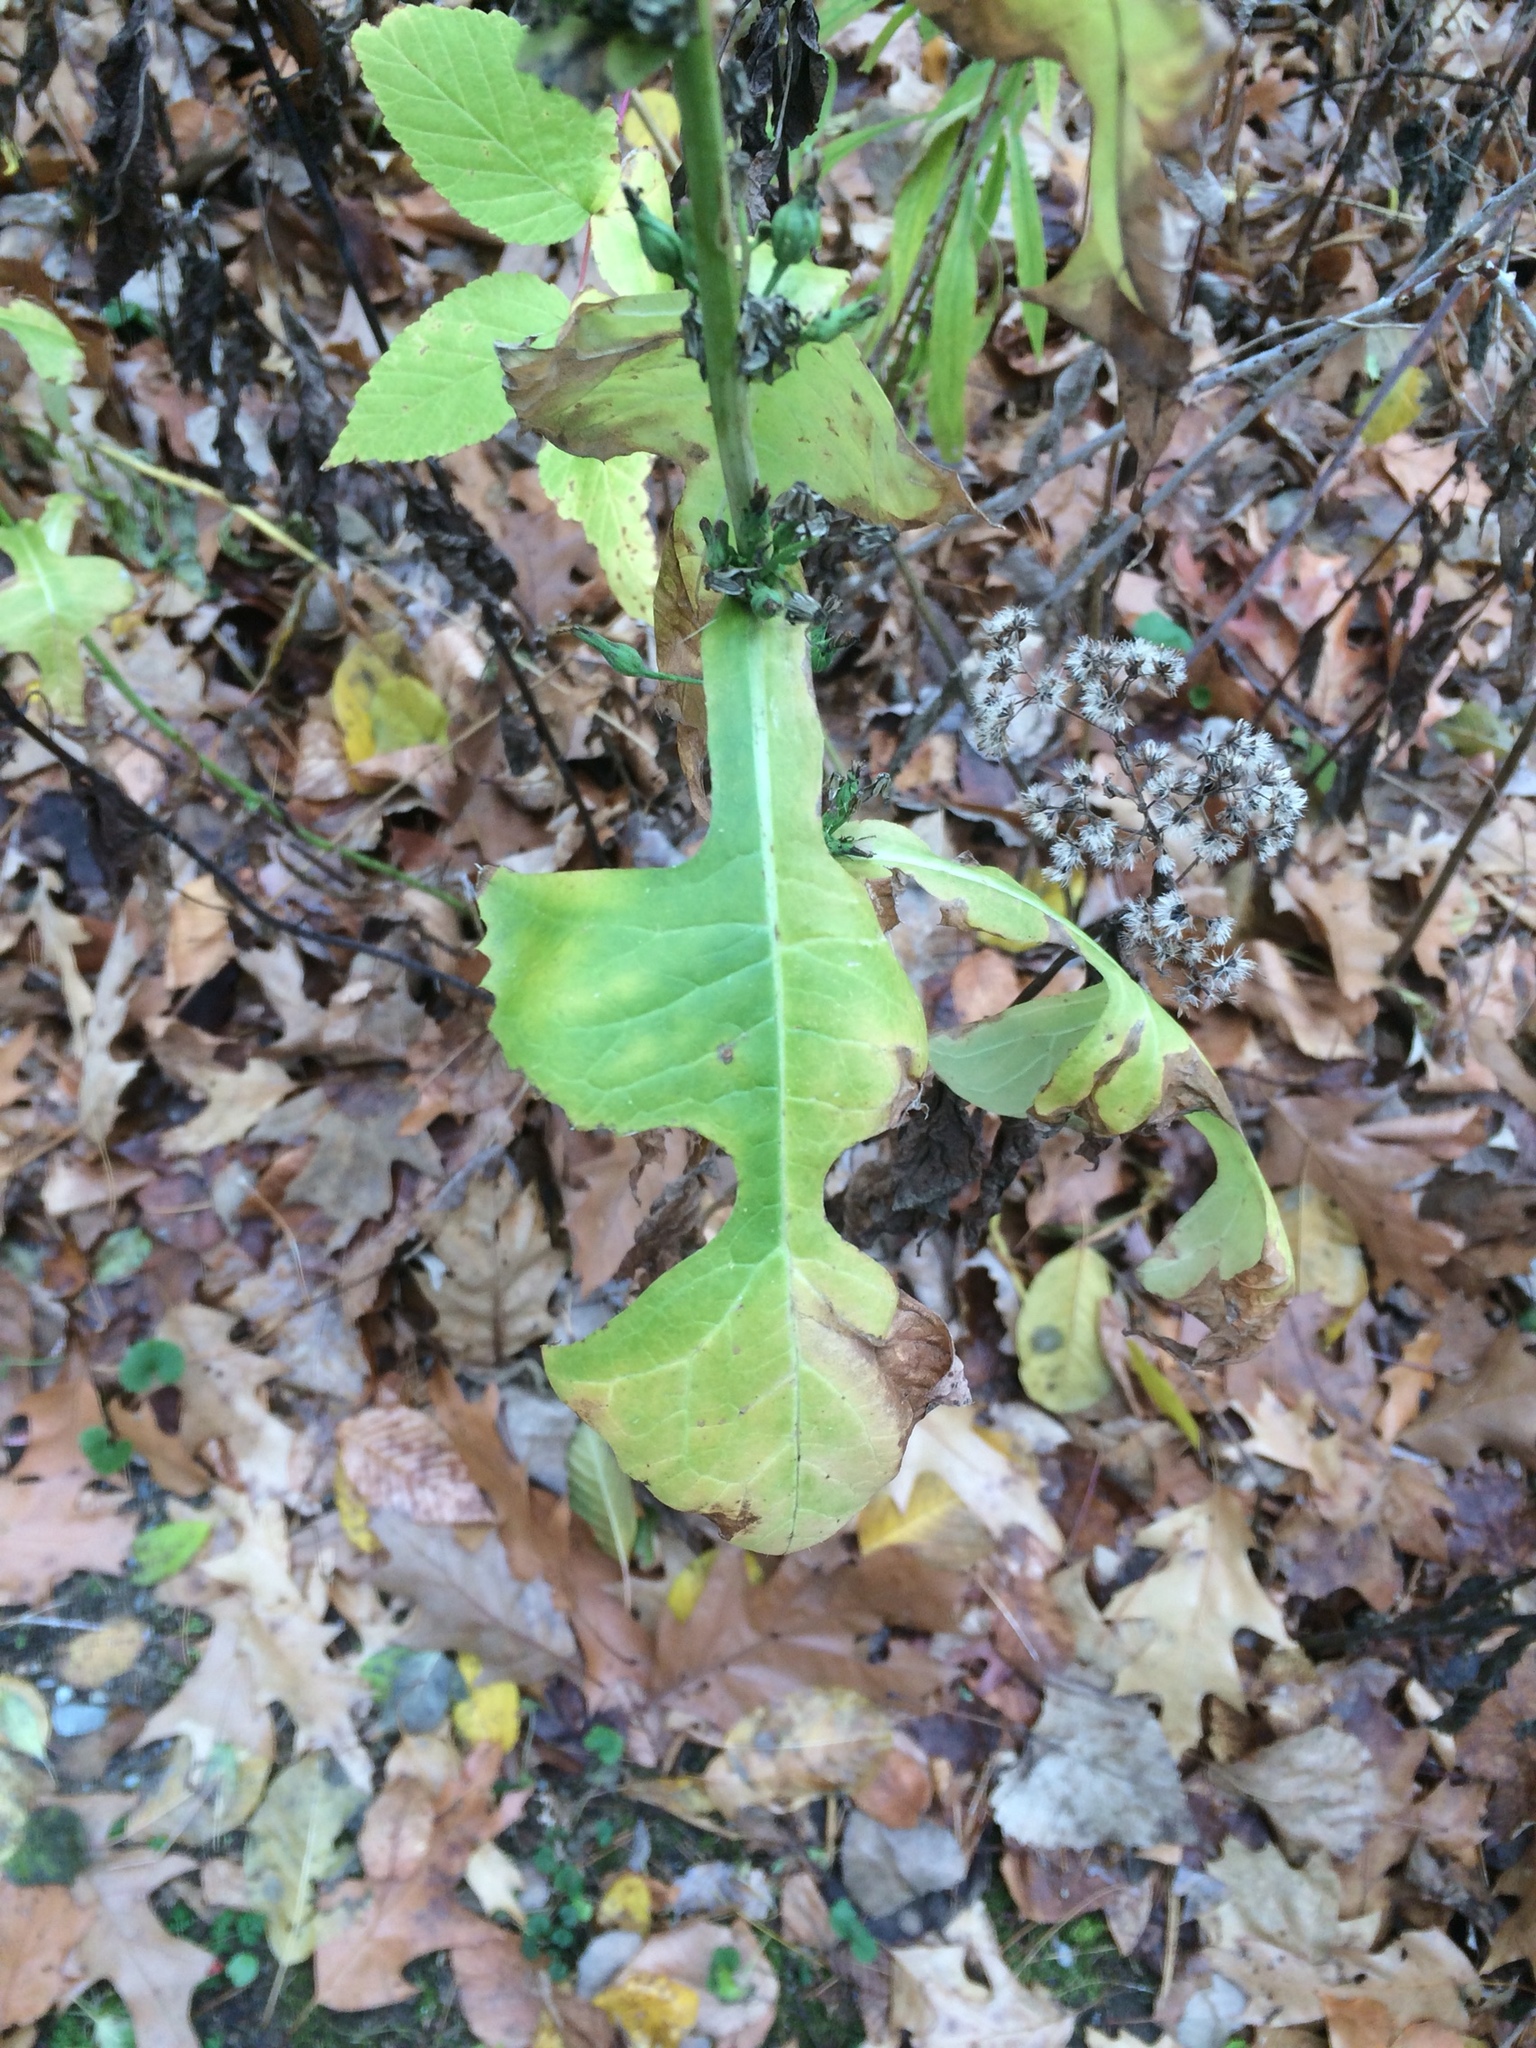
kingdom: Plantae
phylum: Tracheophyta
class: Magnoliopsida
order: Asterales
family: Asteraceae
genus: Erechtites
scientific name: Erechtites hieraciifolius
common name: American burnweed
